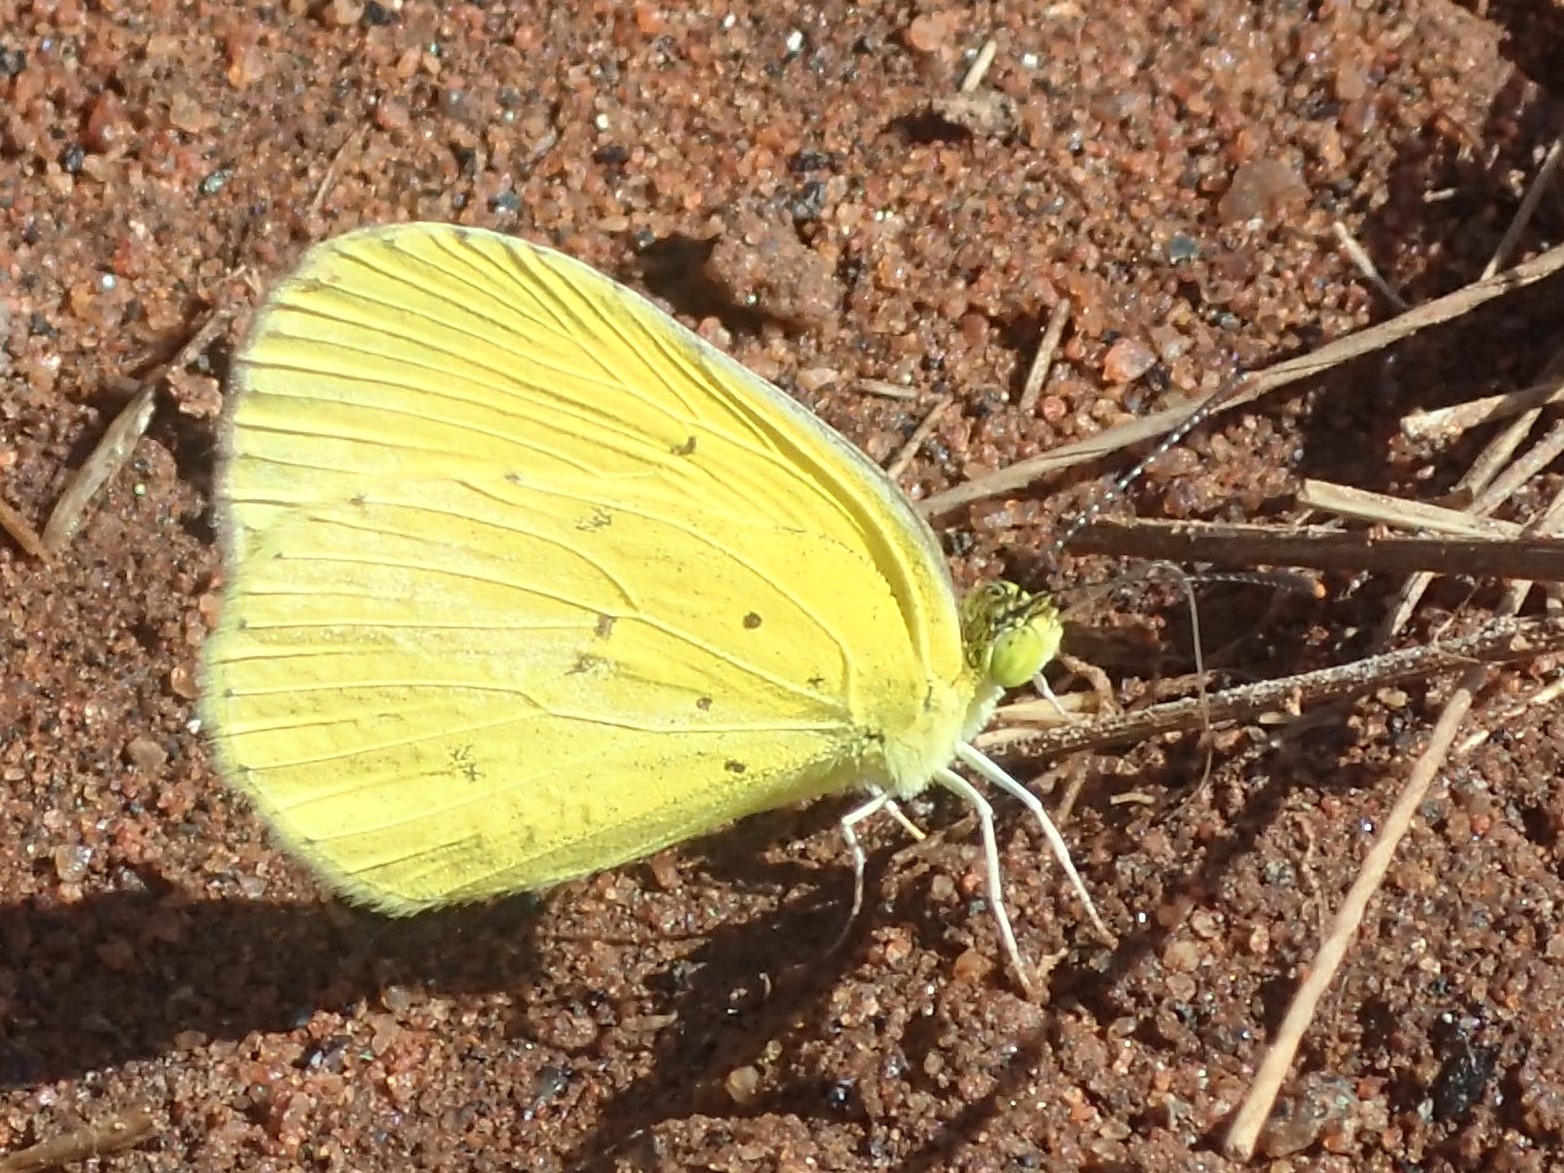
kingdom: Animalia
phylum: Arthropoda
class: Insecta
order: Lepidoptera
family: Pieridae
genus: Eurema
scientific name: Eurema smilax
